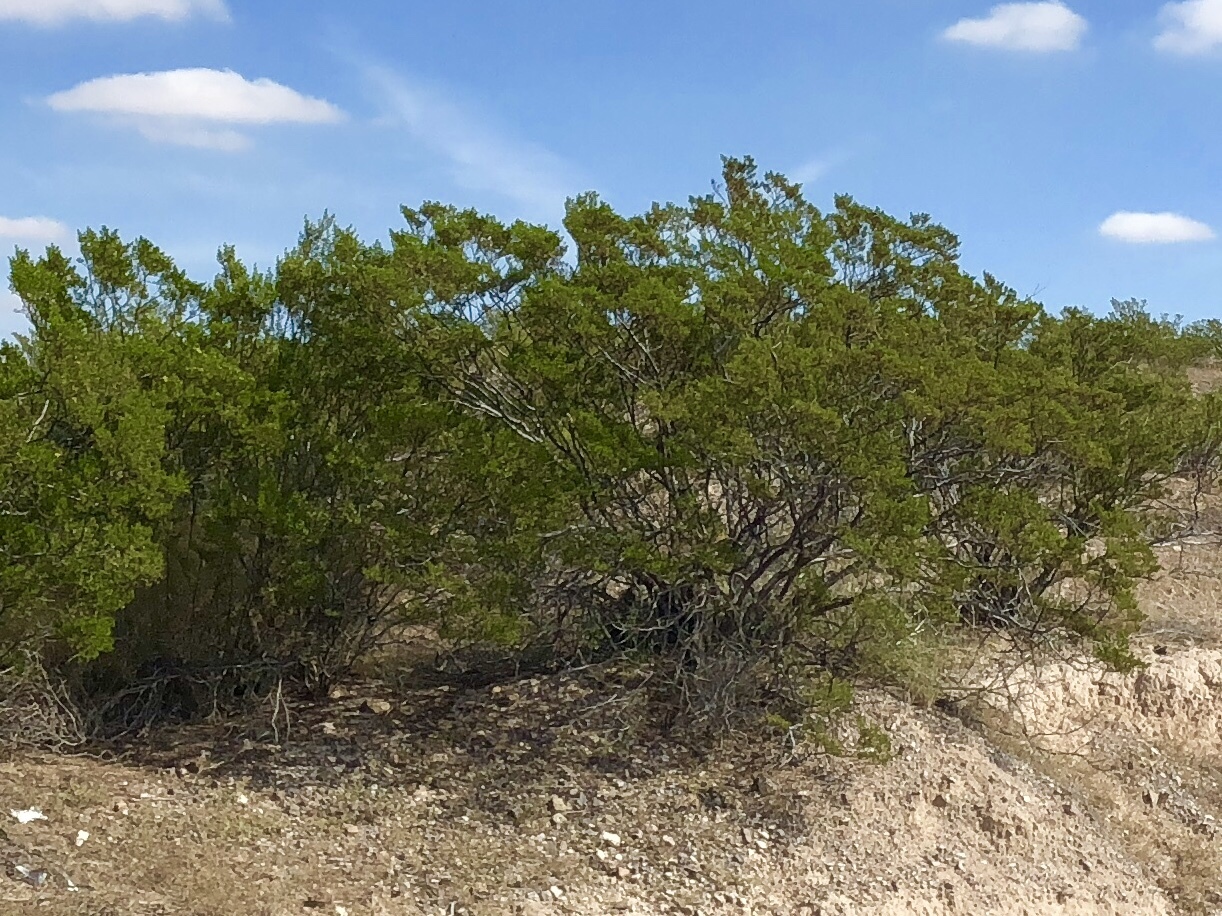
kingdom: Plantae
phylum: Tracheophyta
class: Magnoliopsida
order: Zygophyllales
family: Zygophyllaceae
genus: Larrea
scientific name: Larrea tridentata
